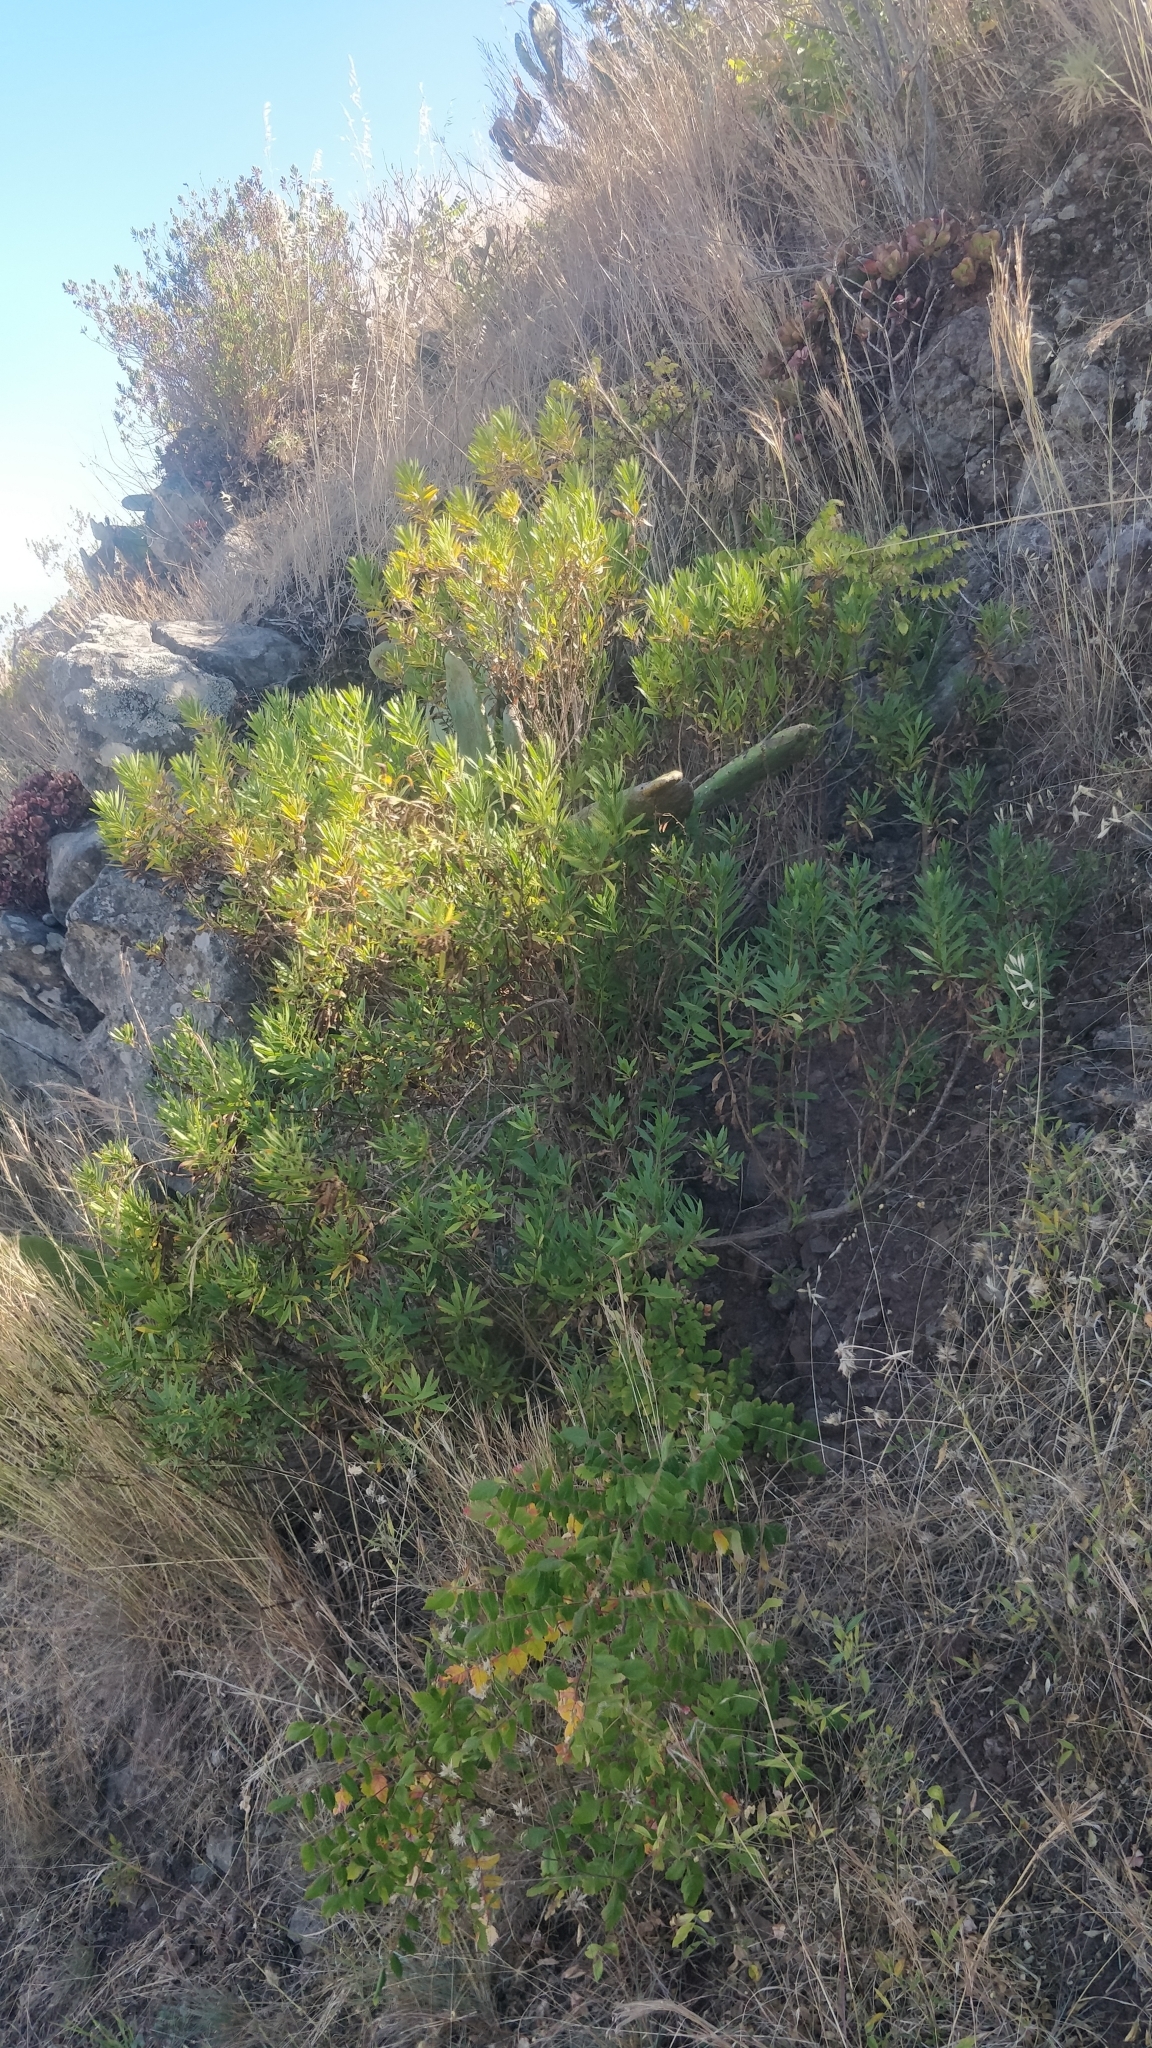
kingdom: Plantae
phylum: Tracheophyta
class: Magnoliopsida
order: Lamiales
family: Plantaginaceae
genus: Globularia
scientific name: Globularia salicina
